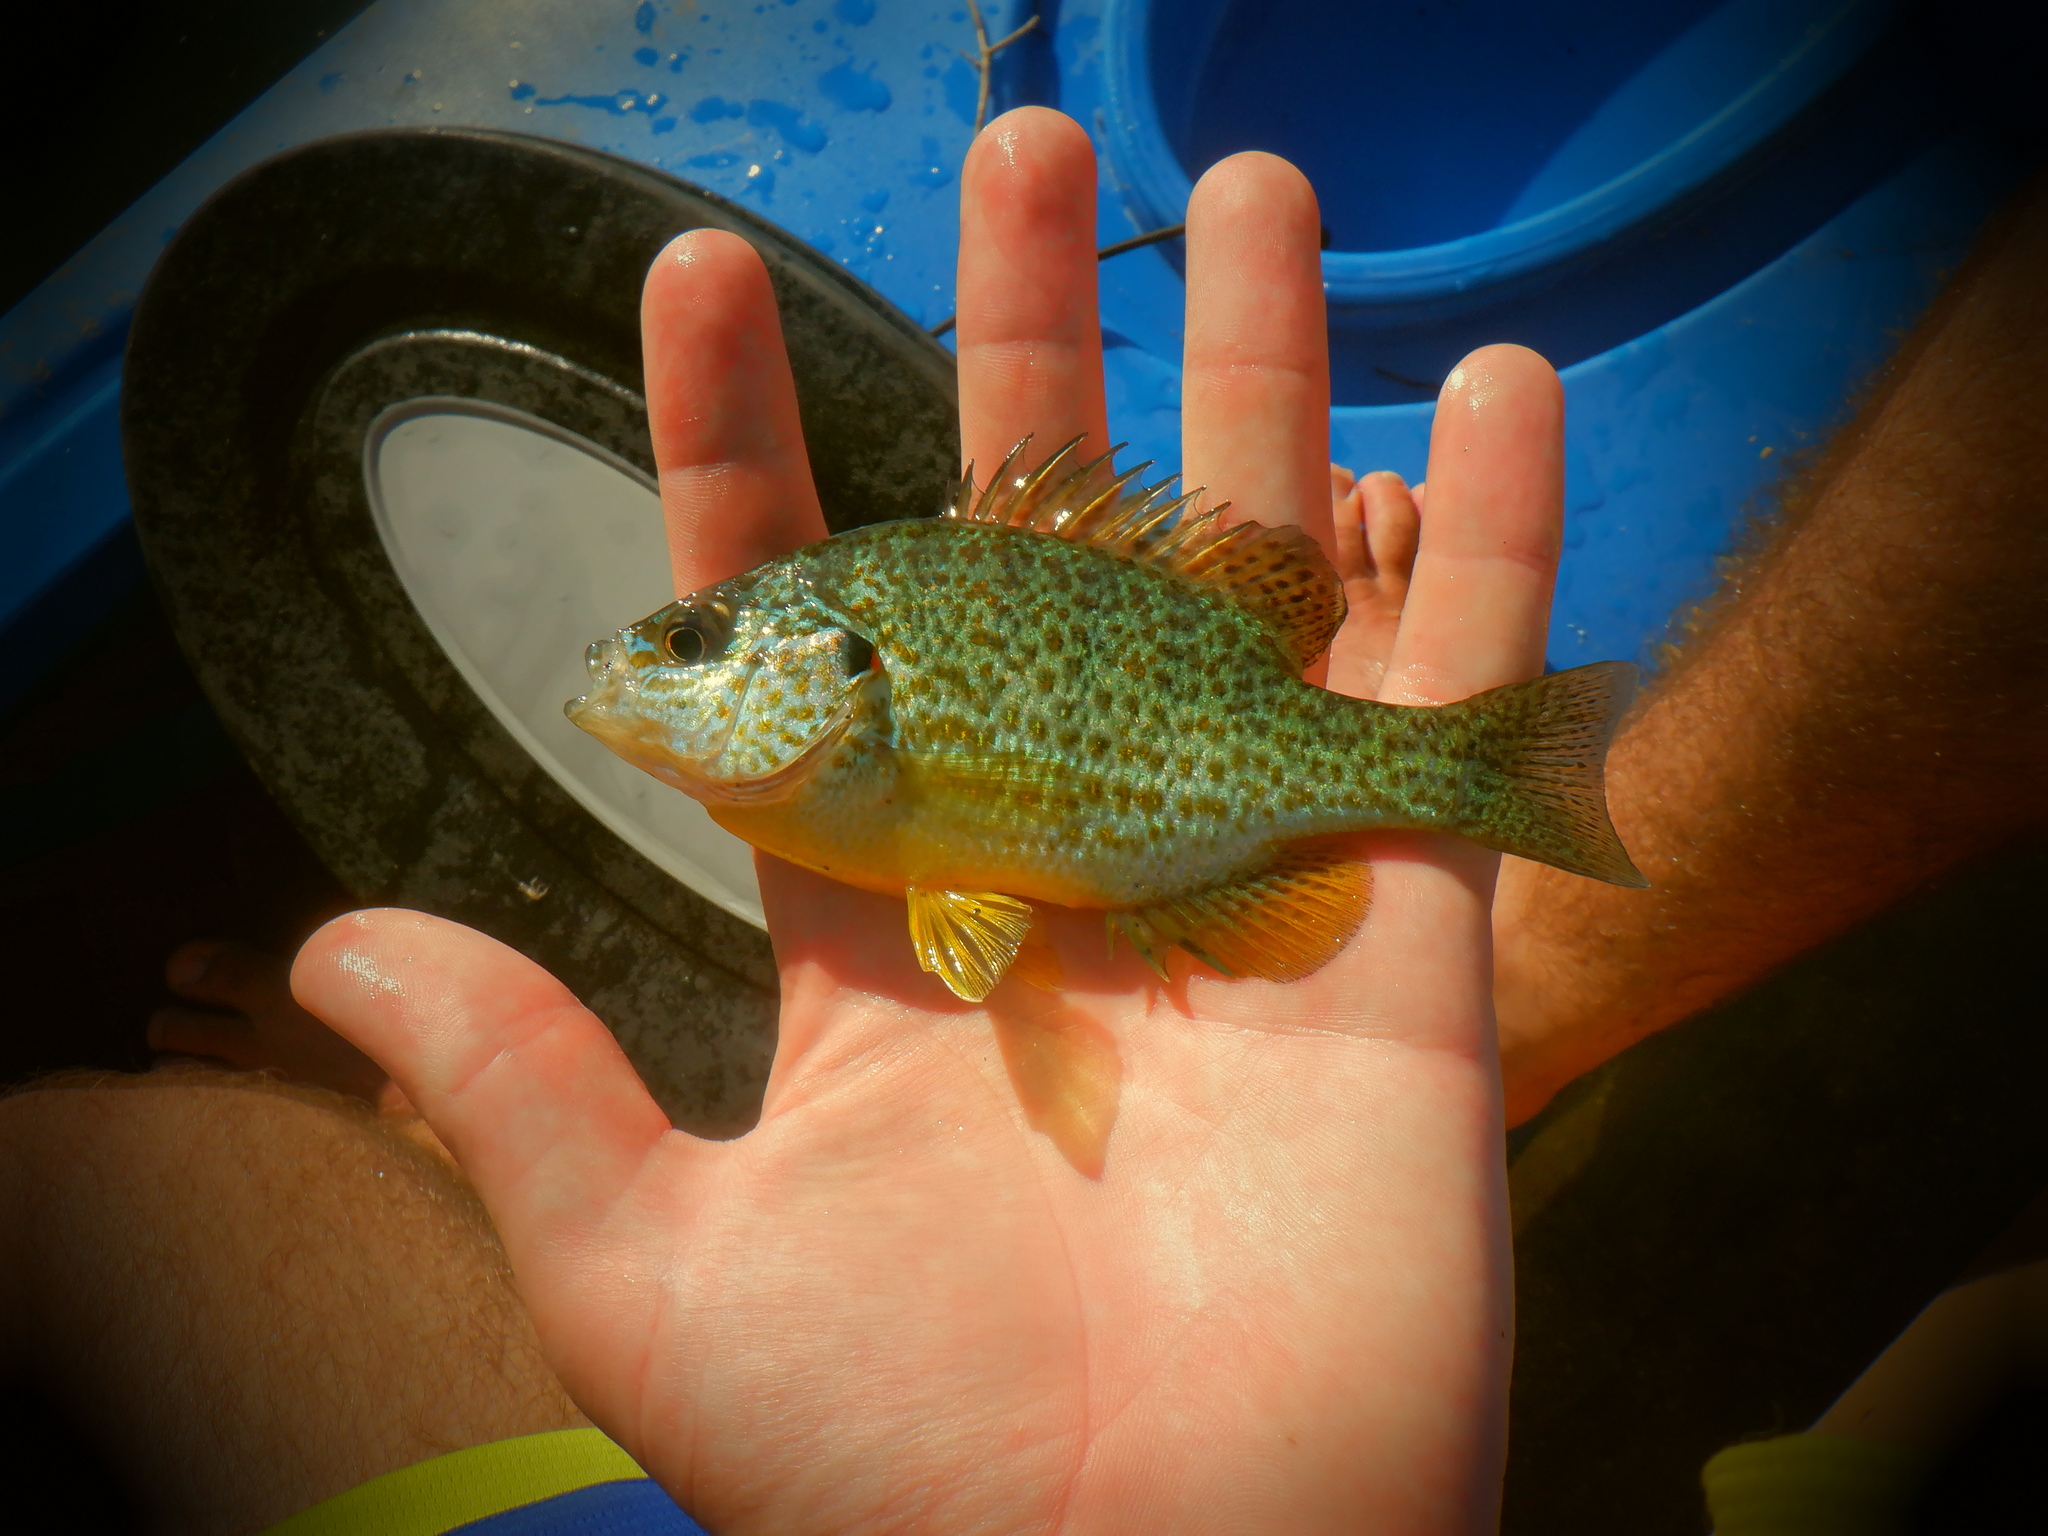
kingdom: Animalia
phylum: Chordata
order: Perciformes
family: Centrarchidae
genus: Lepomis
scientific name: Lepomis gibbosus
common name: Pumpkinseed
